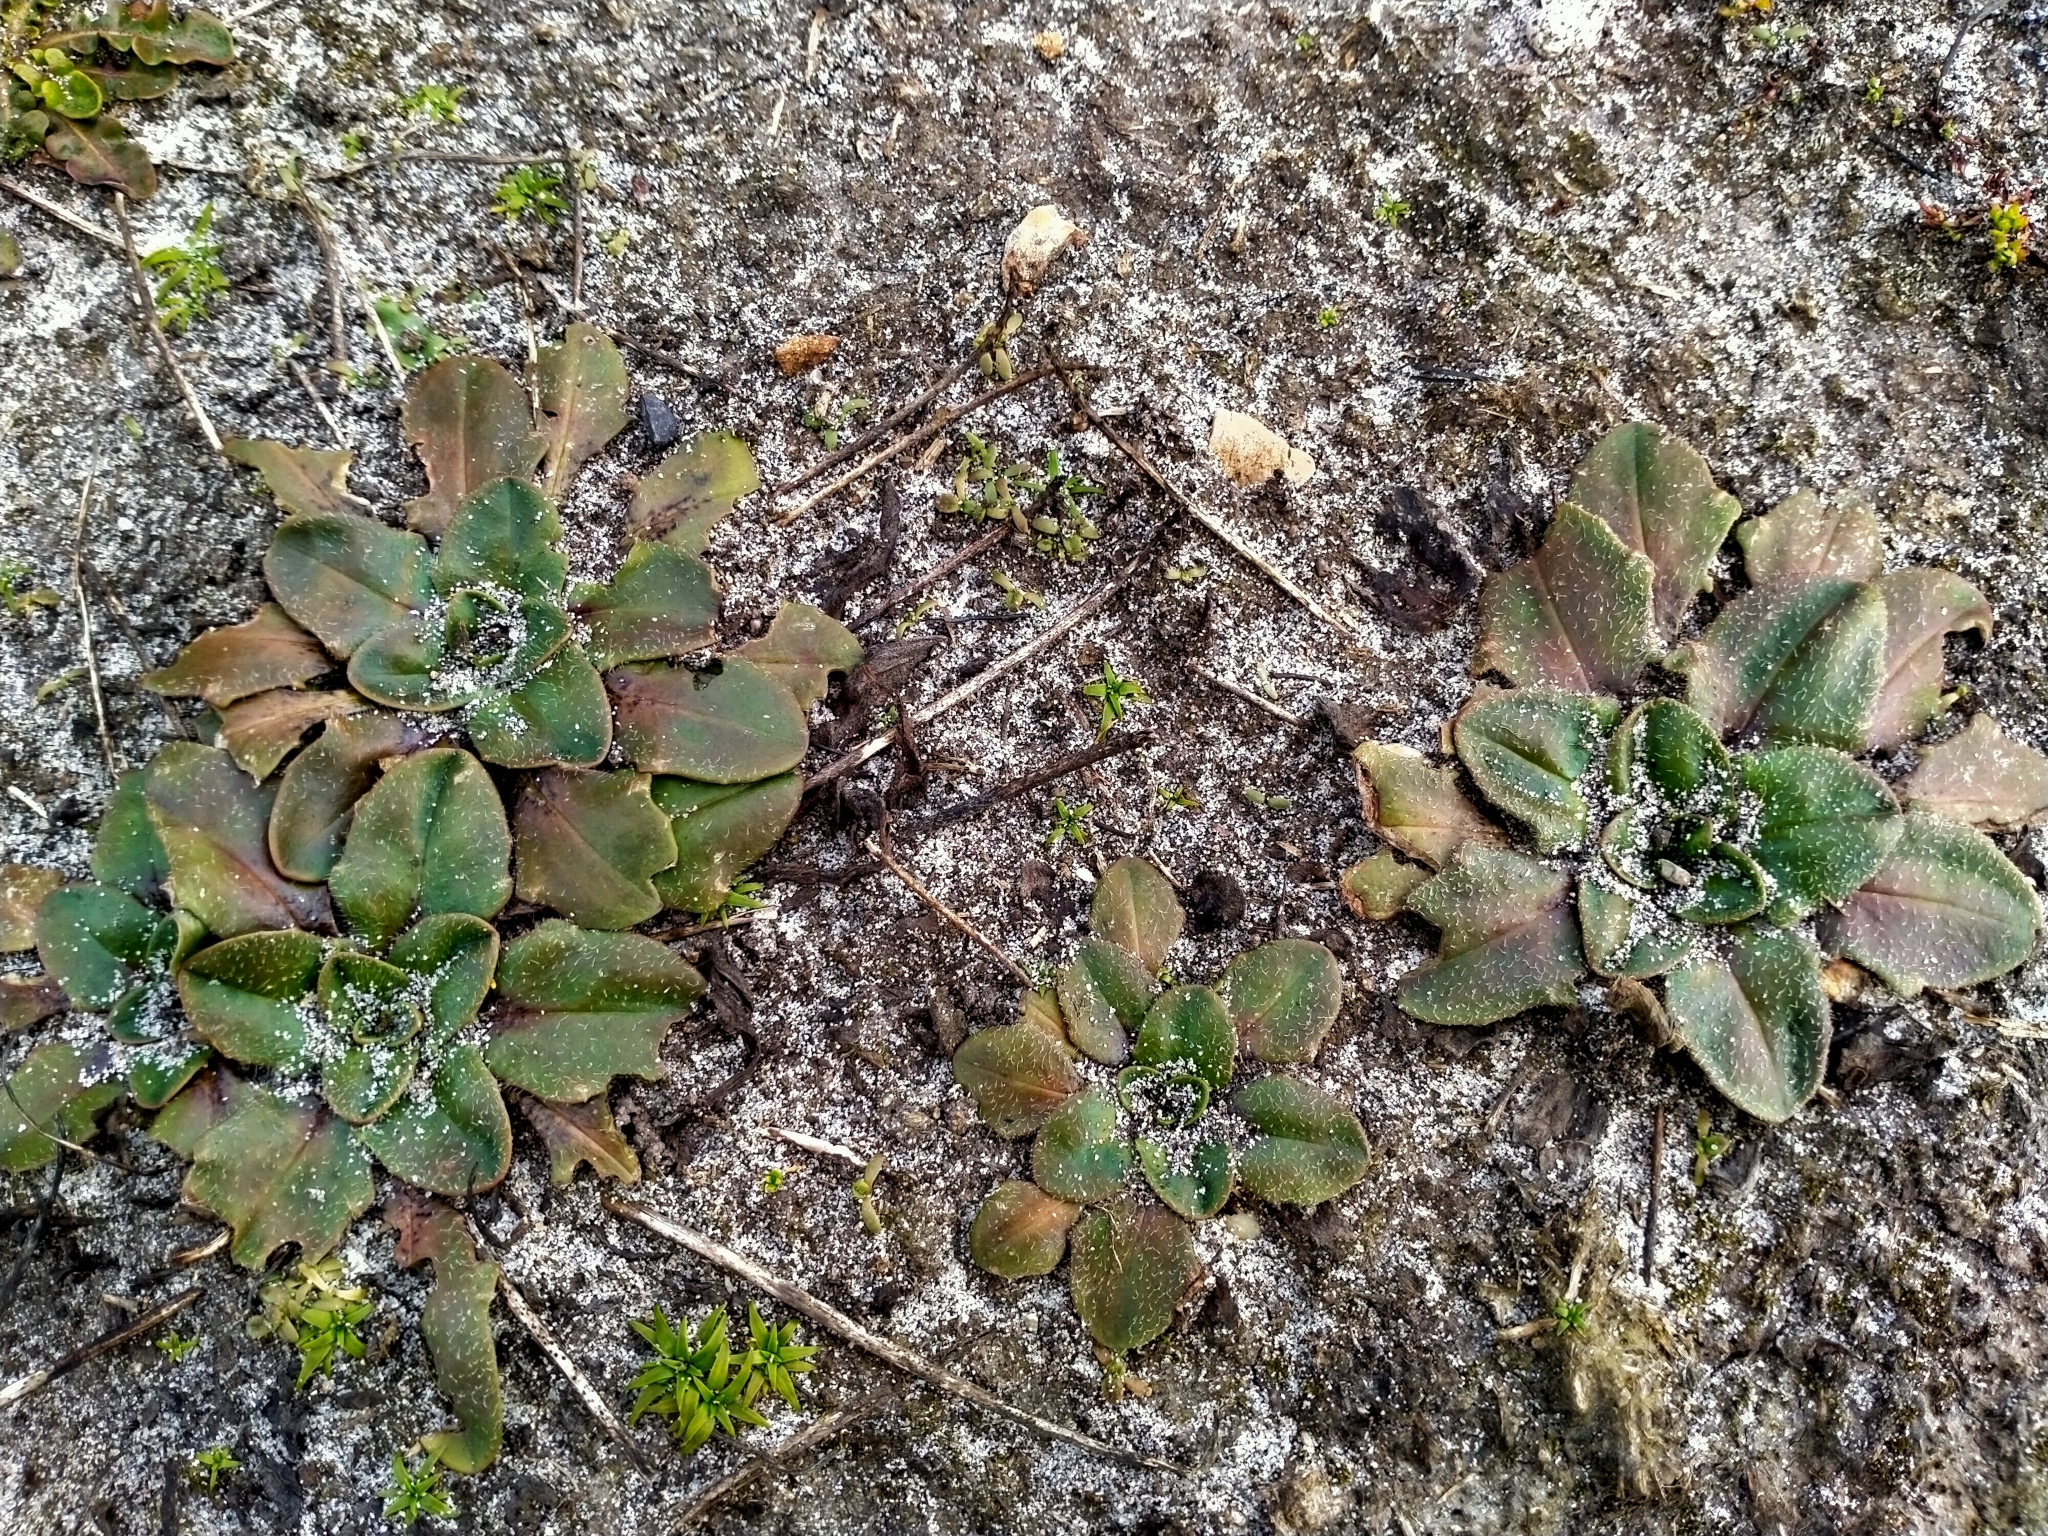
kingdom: Plantae
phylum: Tracheophyta
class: Magnoliopsida
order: Lamiales
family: Plantaginaceae
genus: Plantago
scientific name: Plantago raoulii
